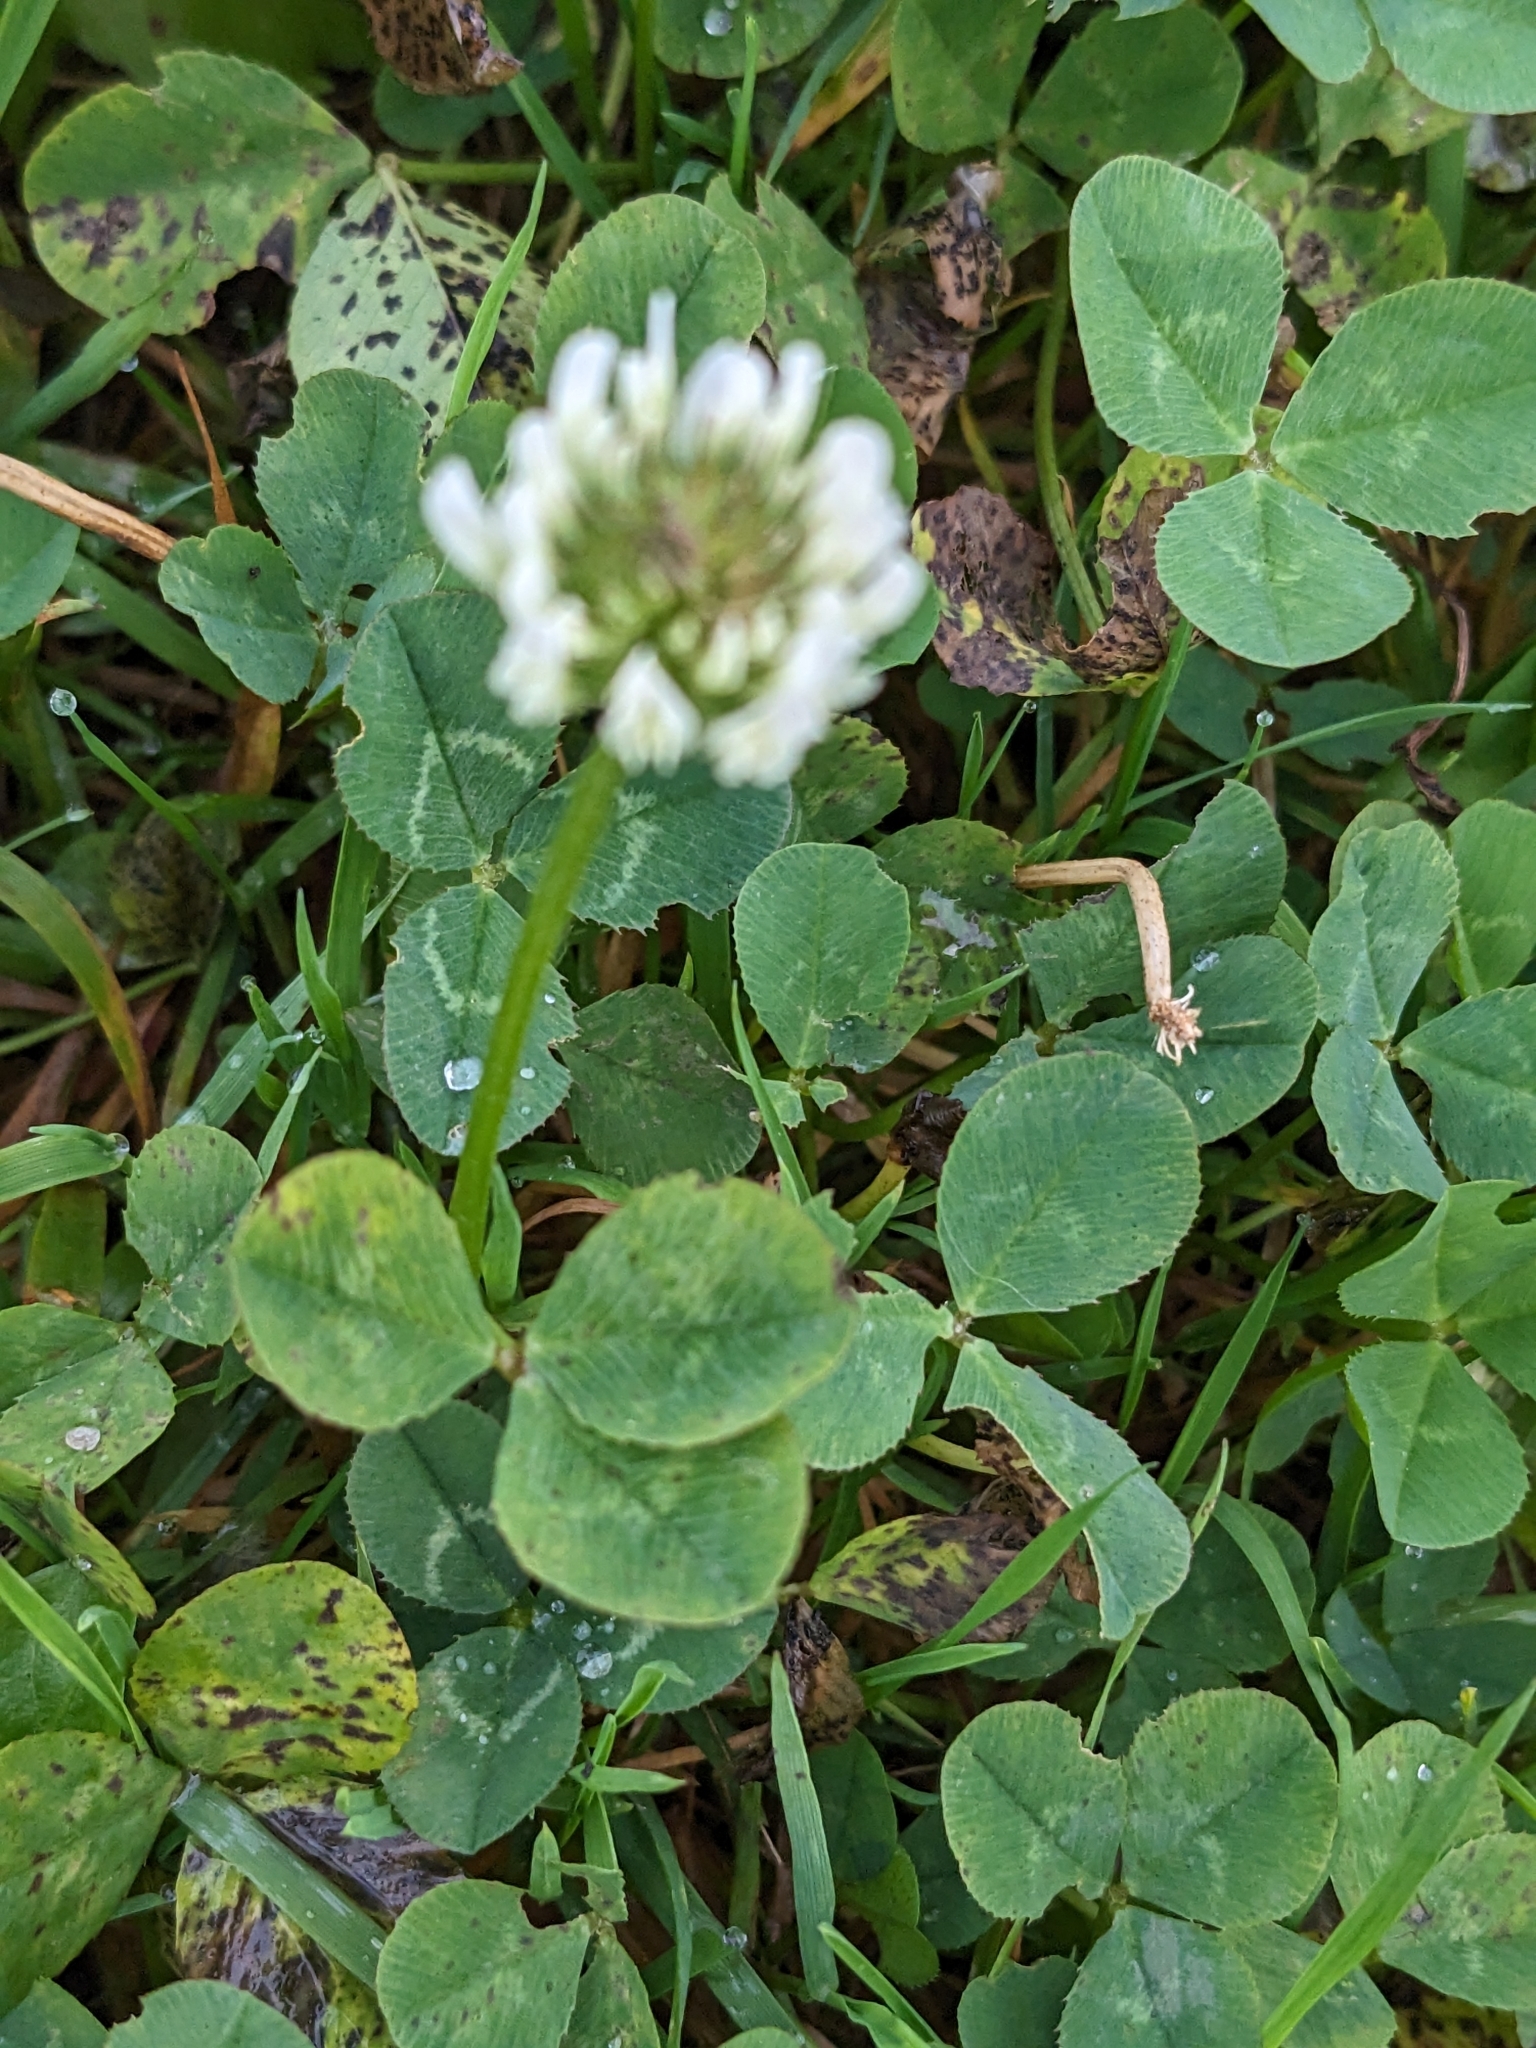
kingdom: Plantae
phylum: Tracheophyta
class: Magnoliopsida
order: Fabales
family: Fabaceae
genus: Trifolium
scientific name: Trifolium repens
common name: White clover
